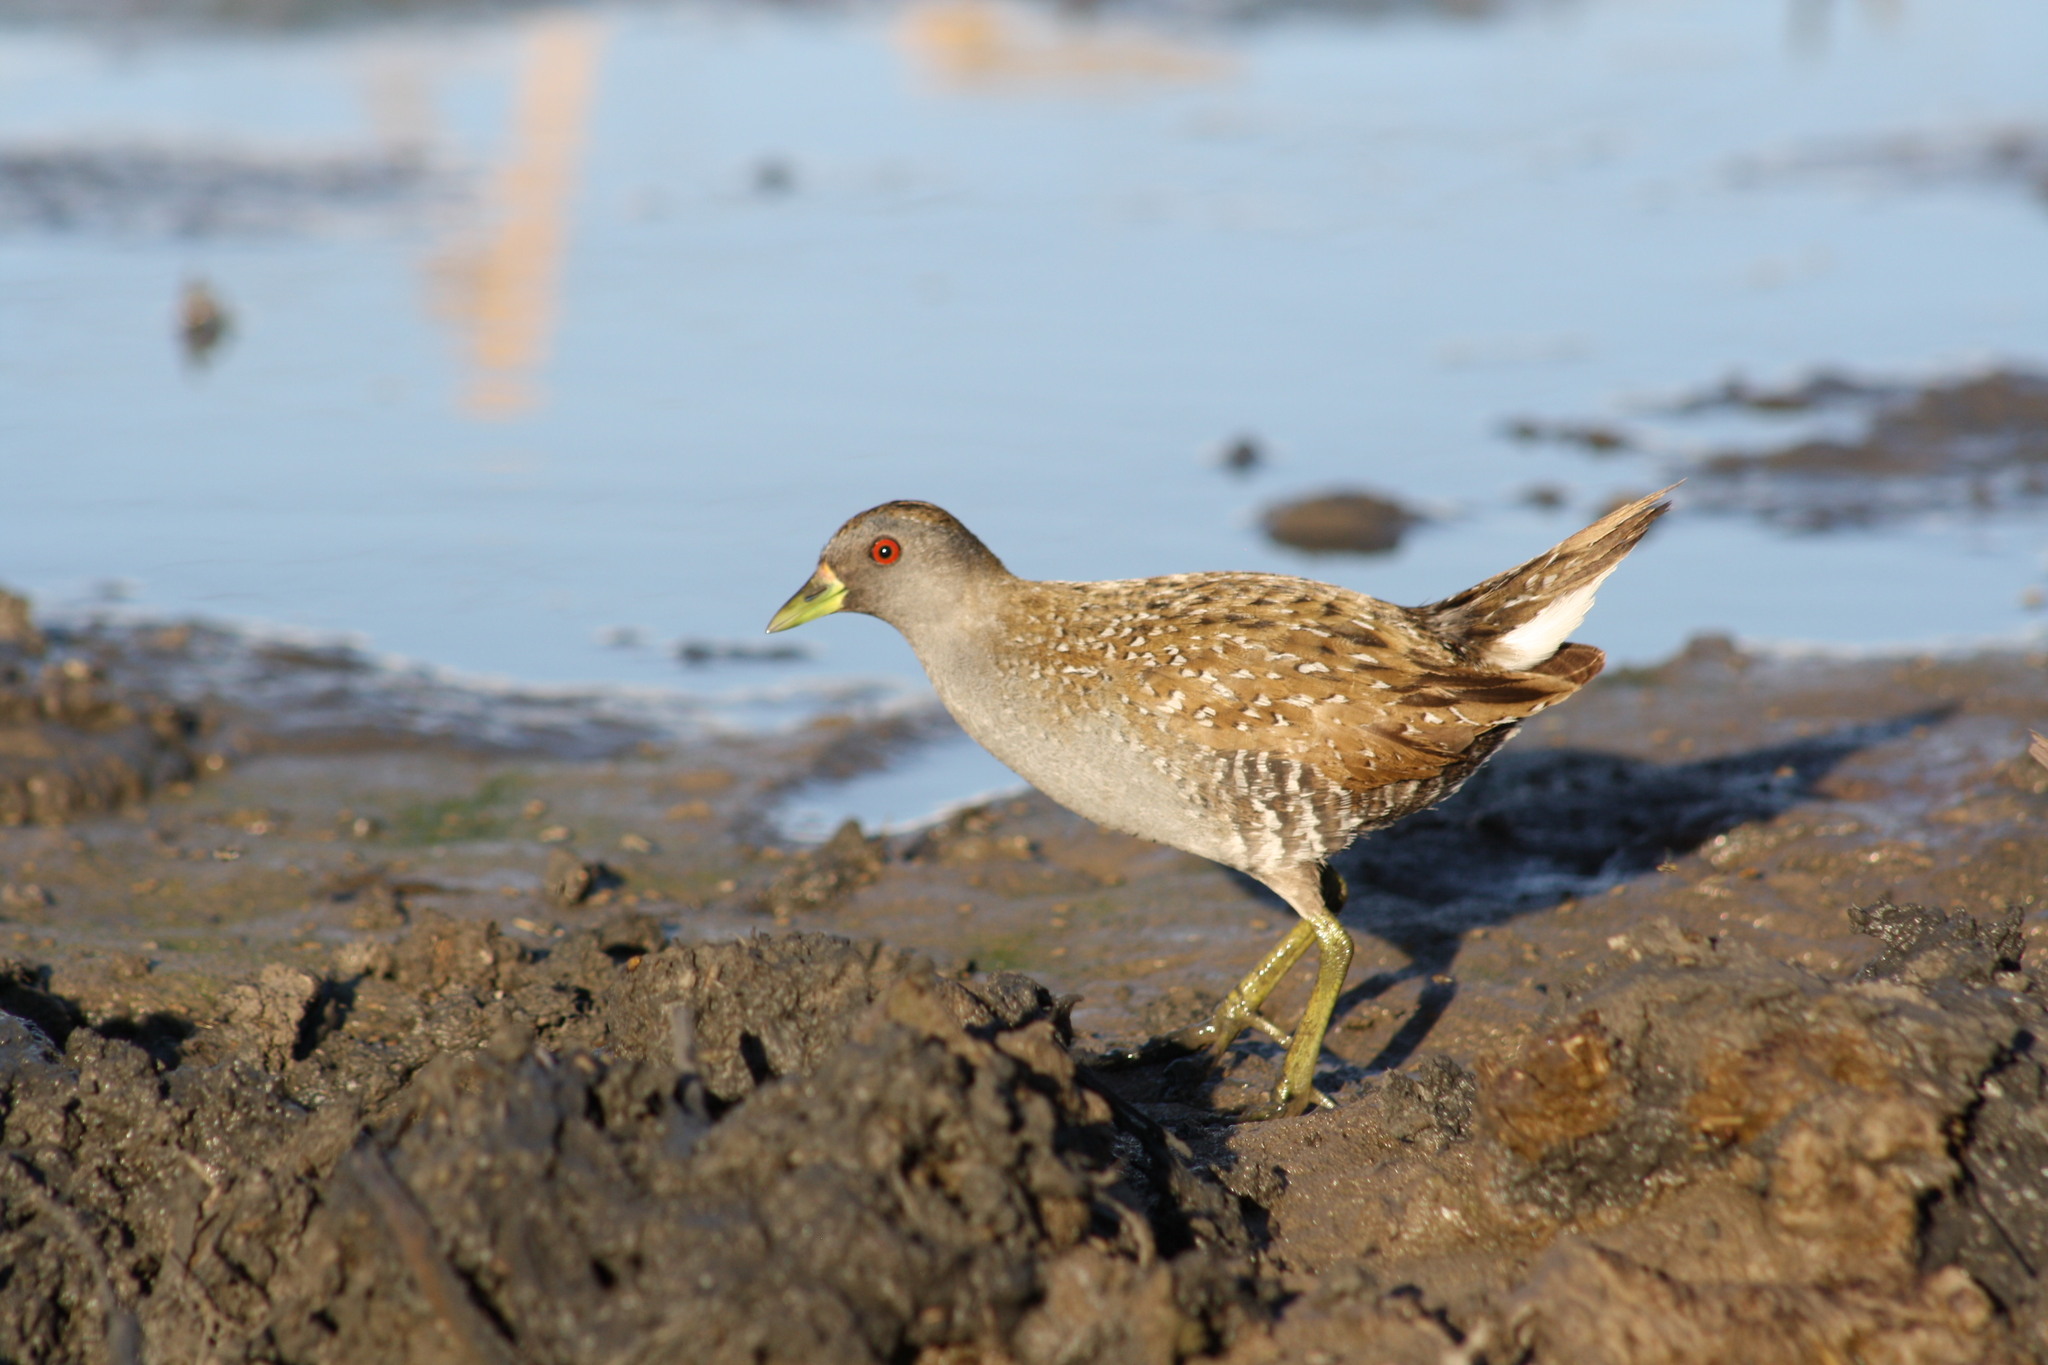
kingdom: Animalia
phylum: Chordata
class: Aves
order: Gruiformes
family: Rallidae
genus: Porzana
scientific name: Porzana fluminea
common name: Australian crake
